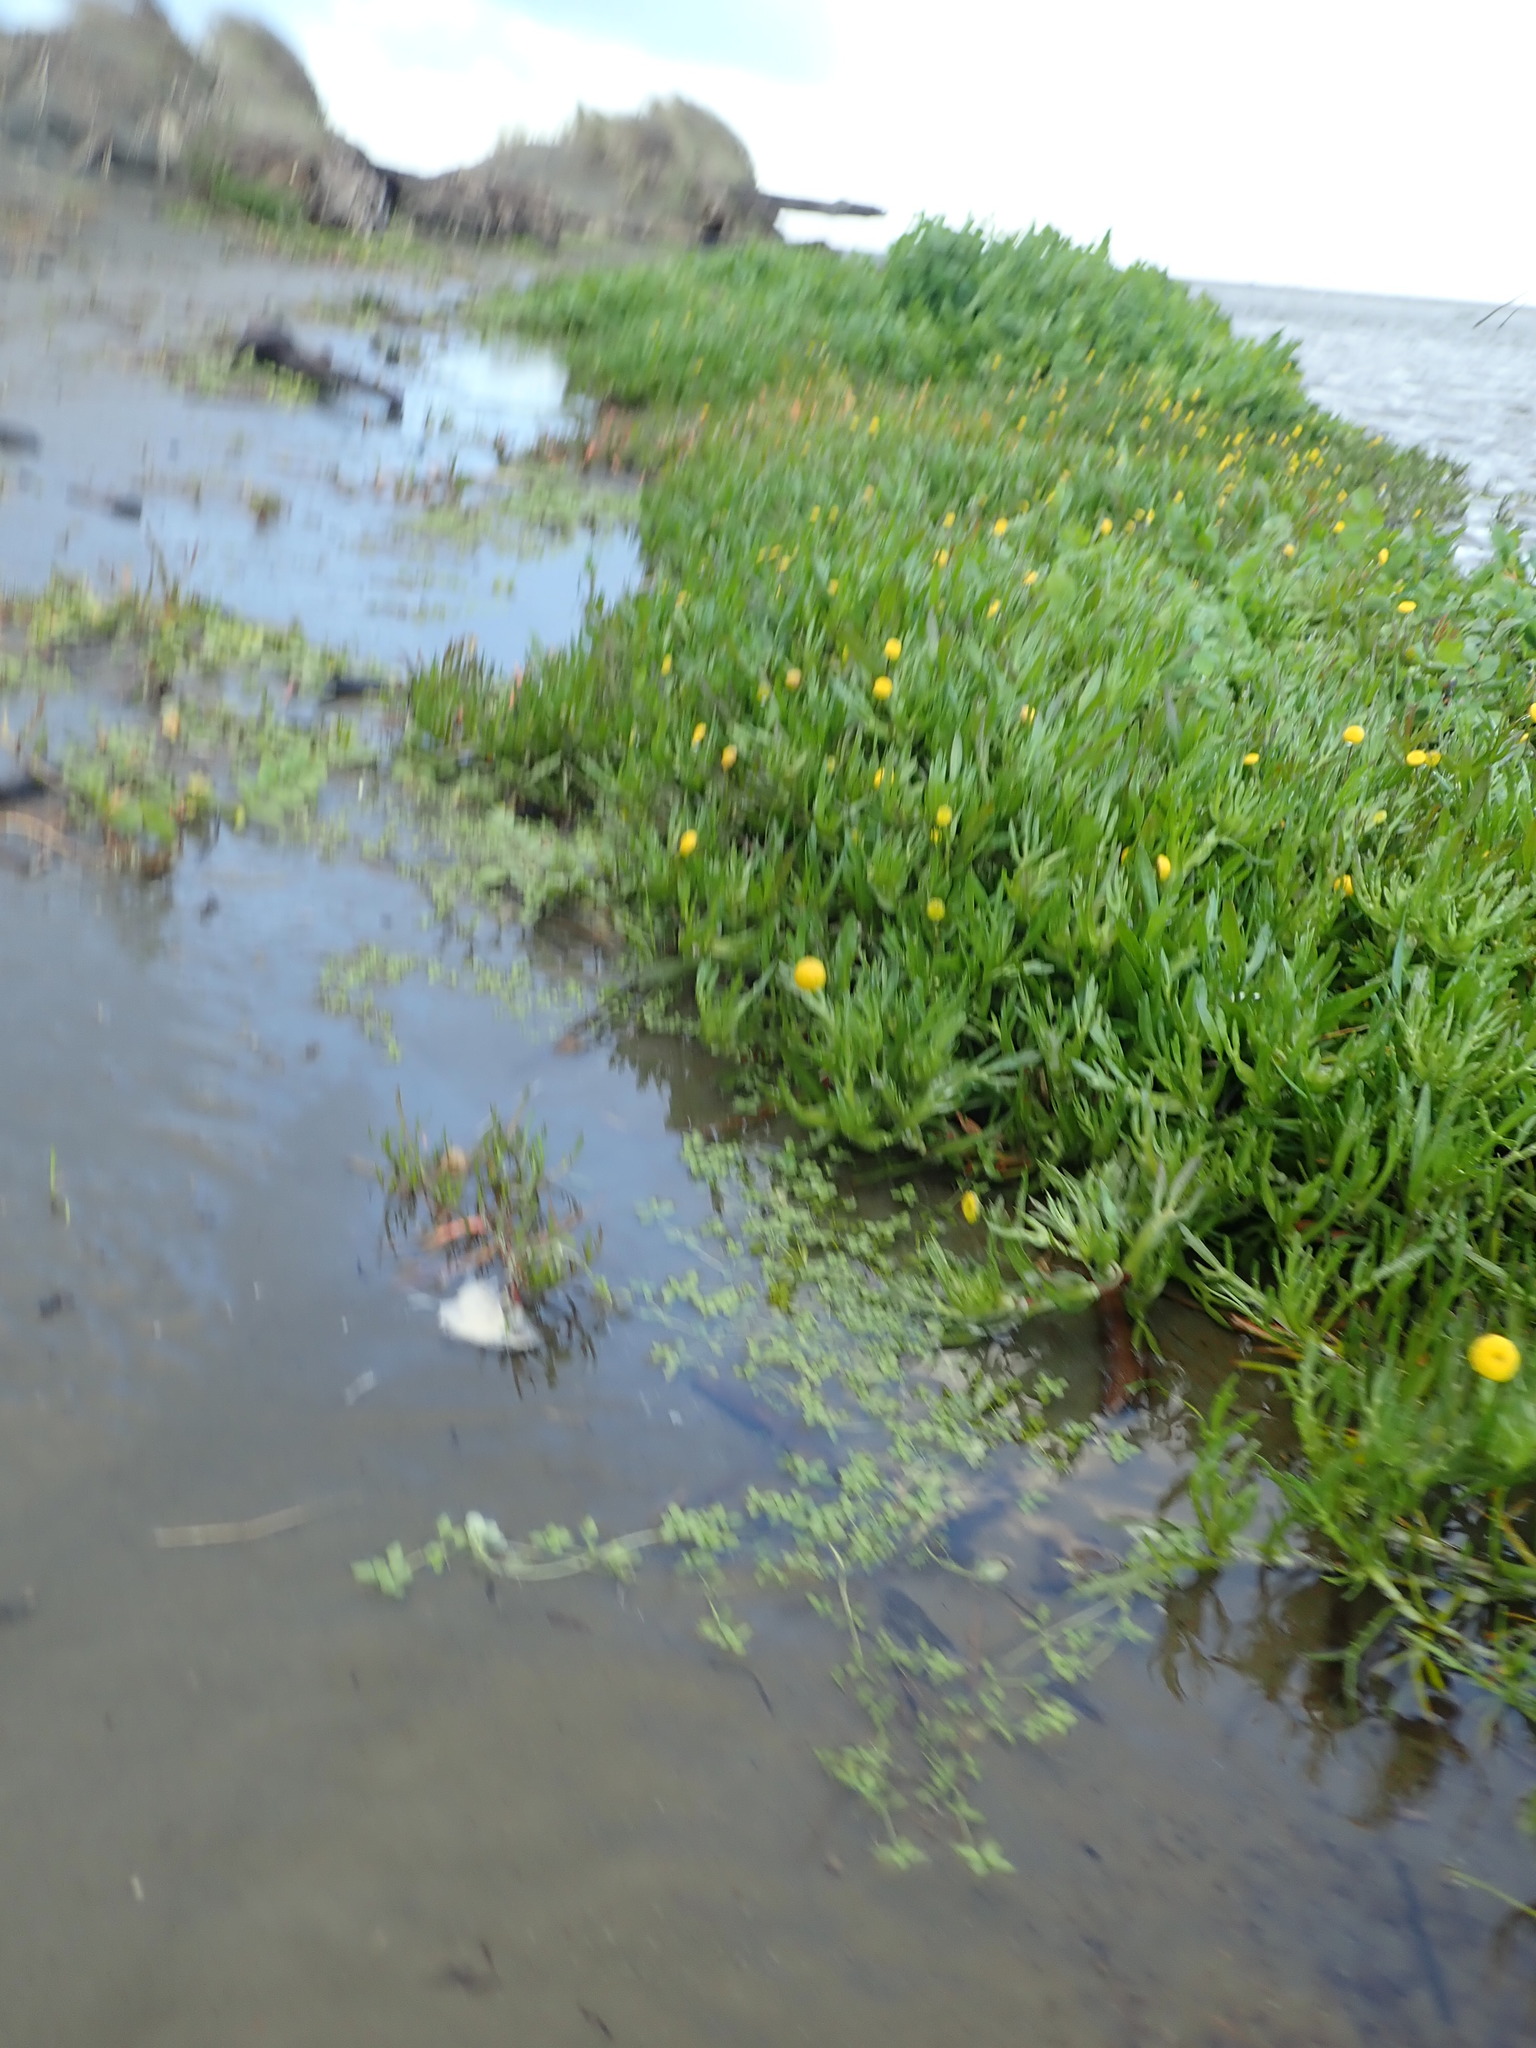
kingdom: Plantae
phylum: Tracheophyta
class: Magnoliopsida
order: Lamiales
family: Plantaginaceae
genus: Callitriche
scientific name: Callitriche stagnalis
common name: Common water-starwort
